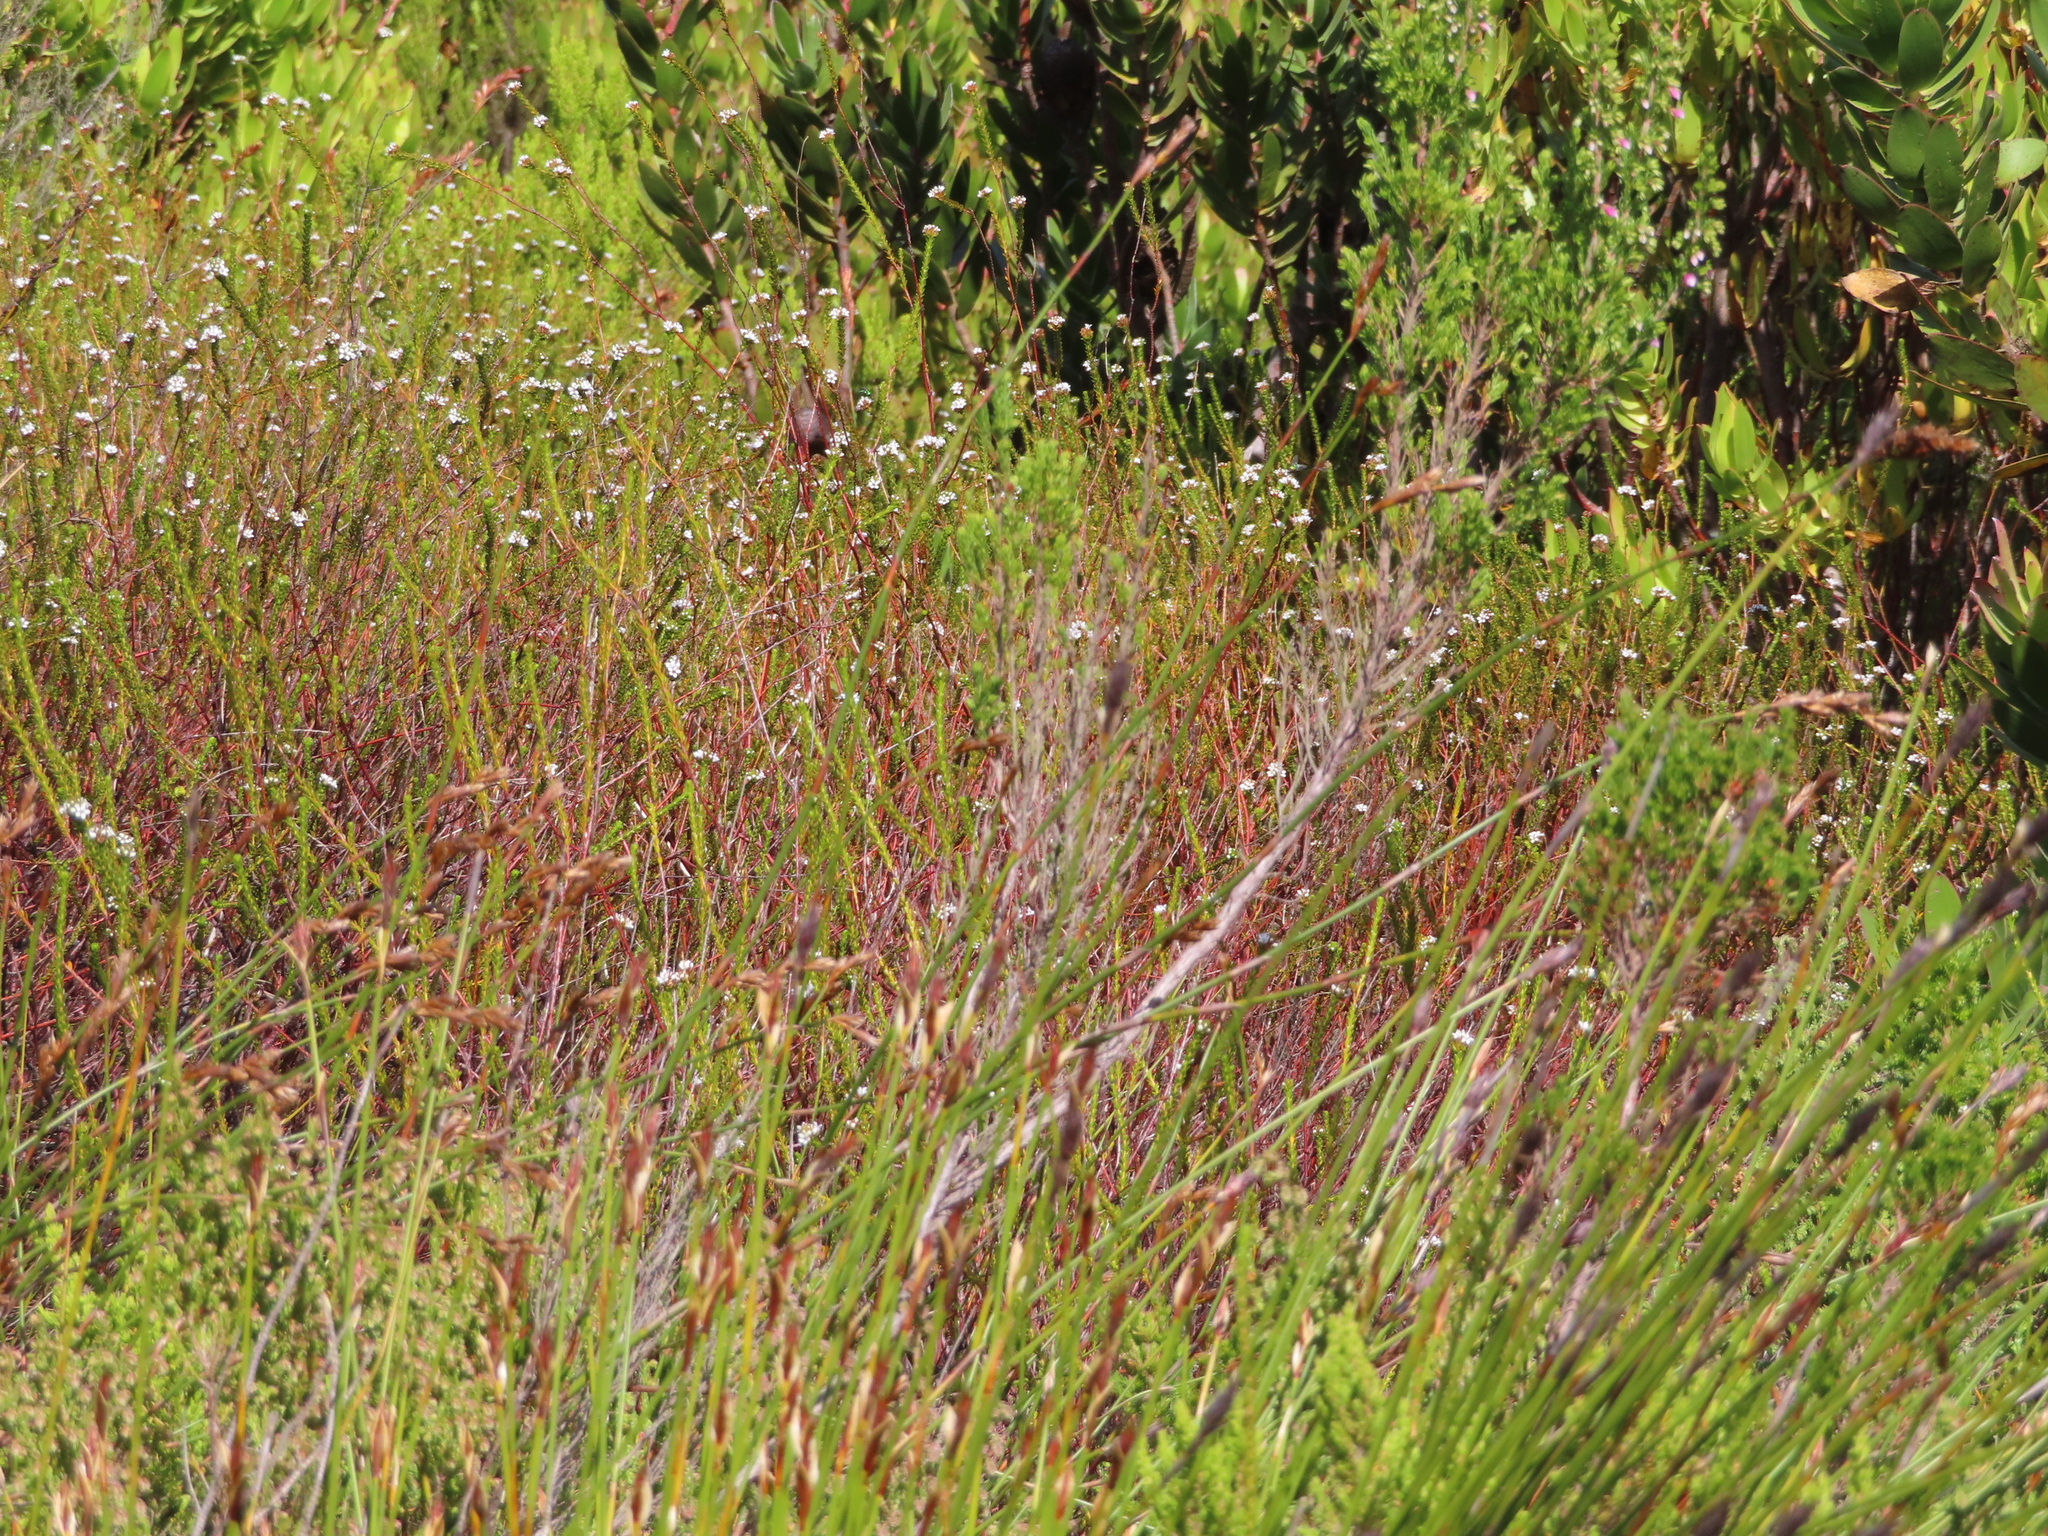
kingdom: Plantae
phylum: Tracheophyta
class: Magnoliopsida
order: Sapindales
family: Rutaceae
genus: Euchaetis
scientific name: Euchaetis glabra
